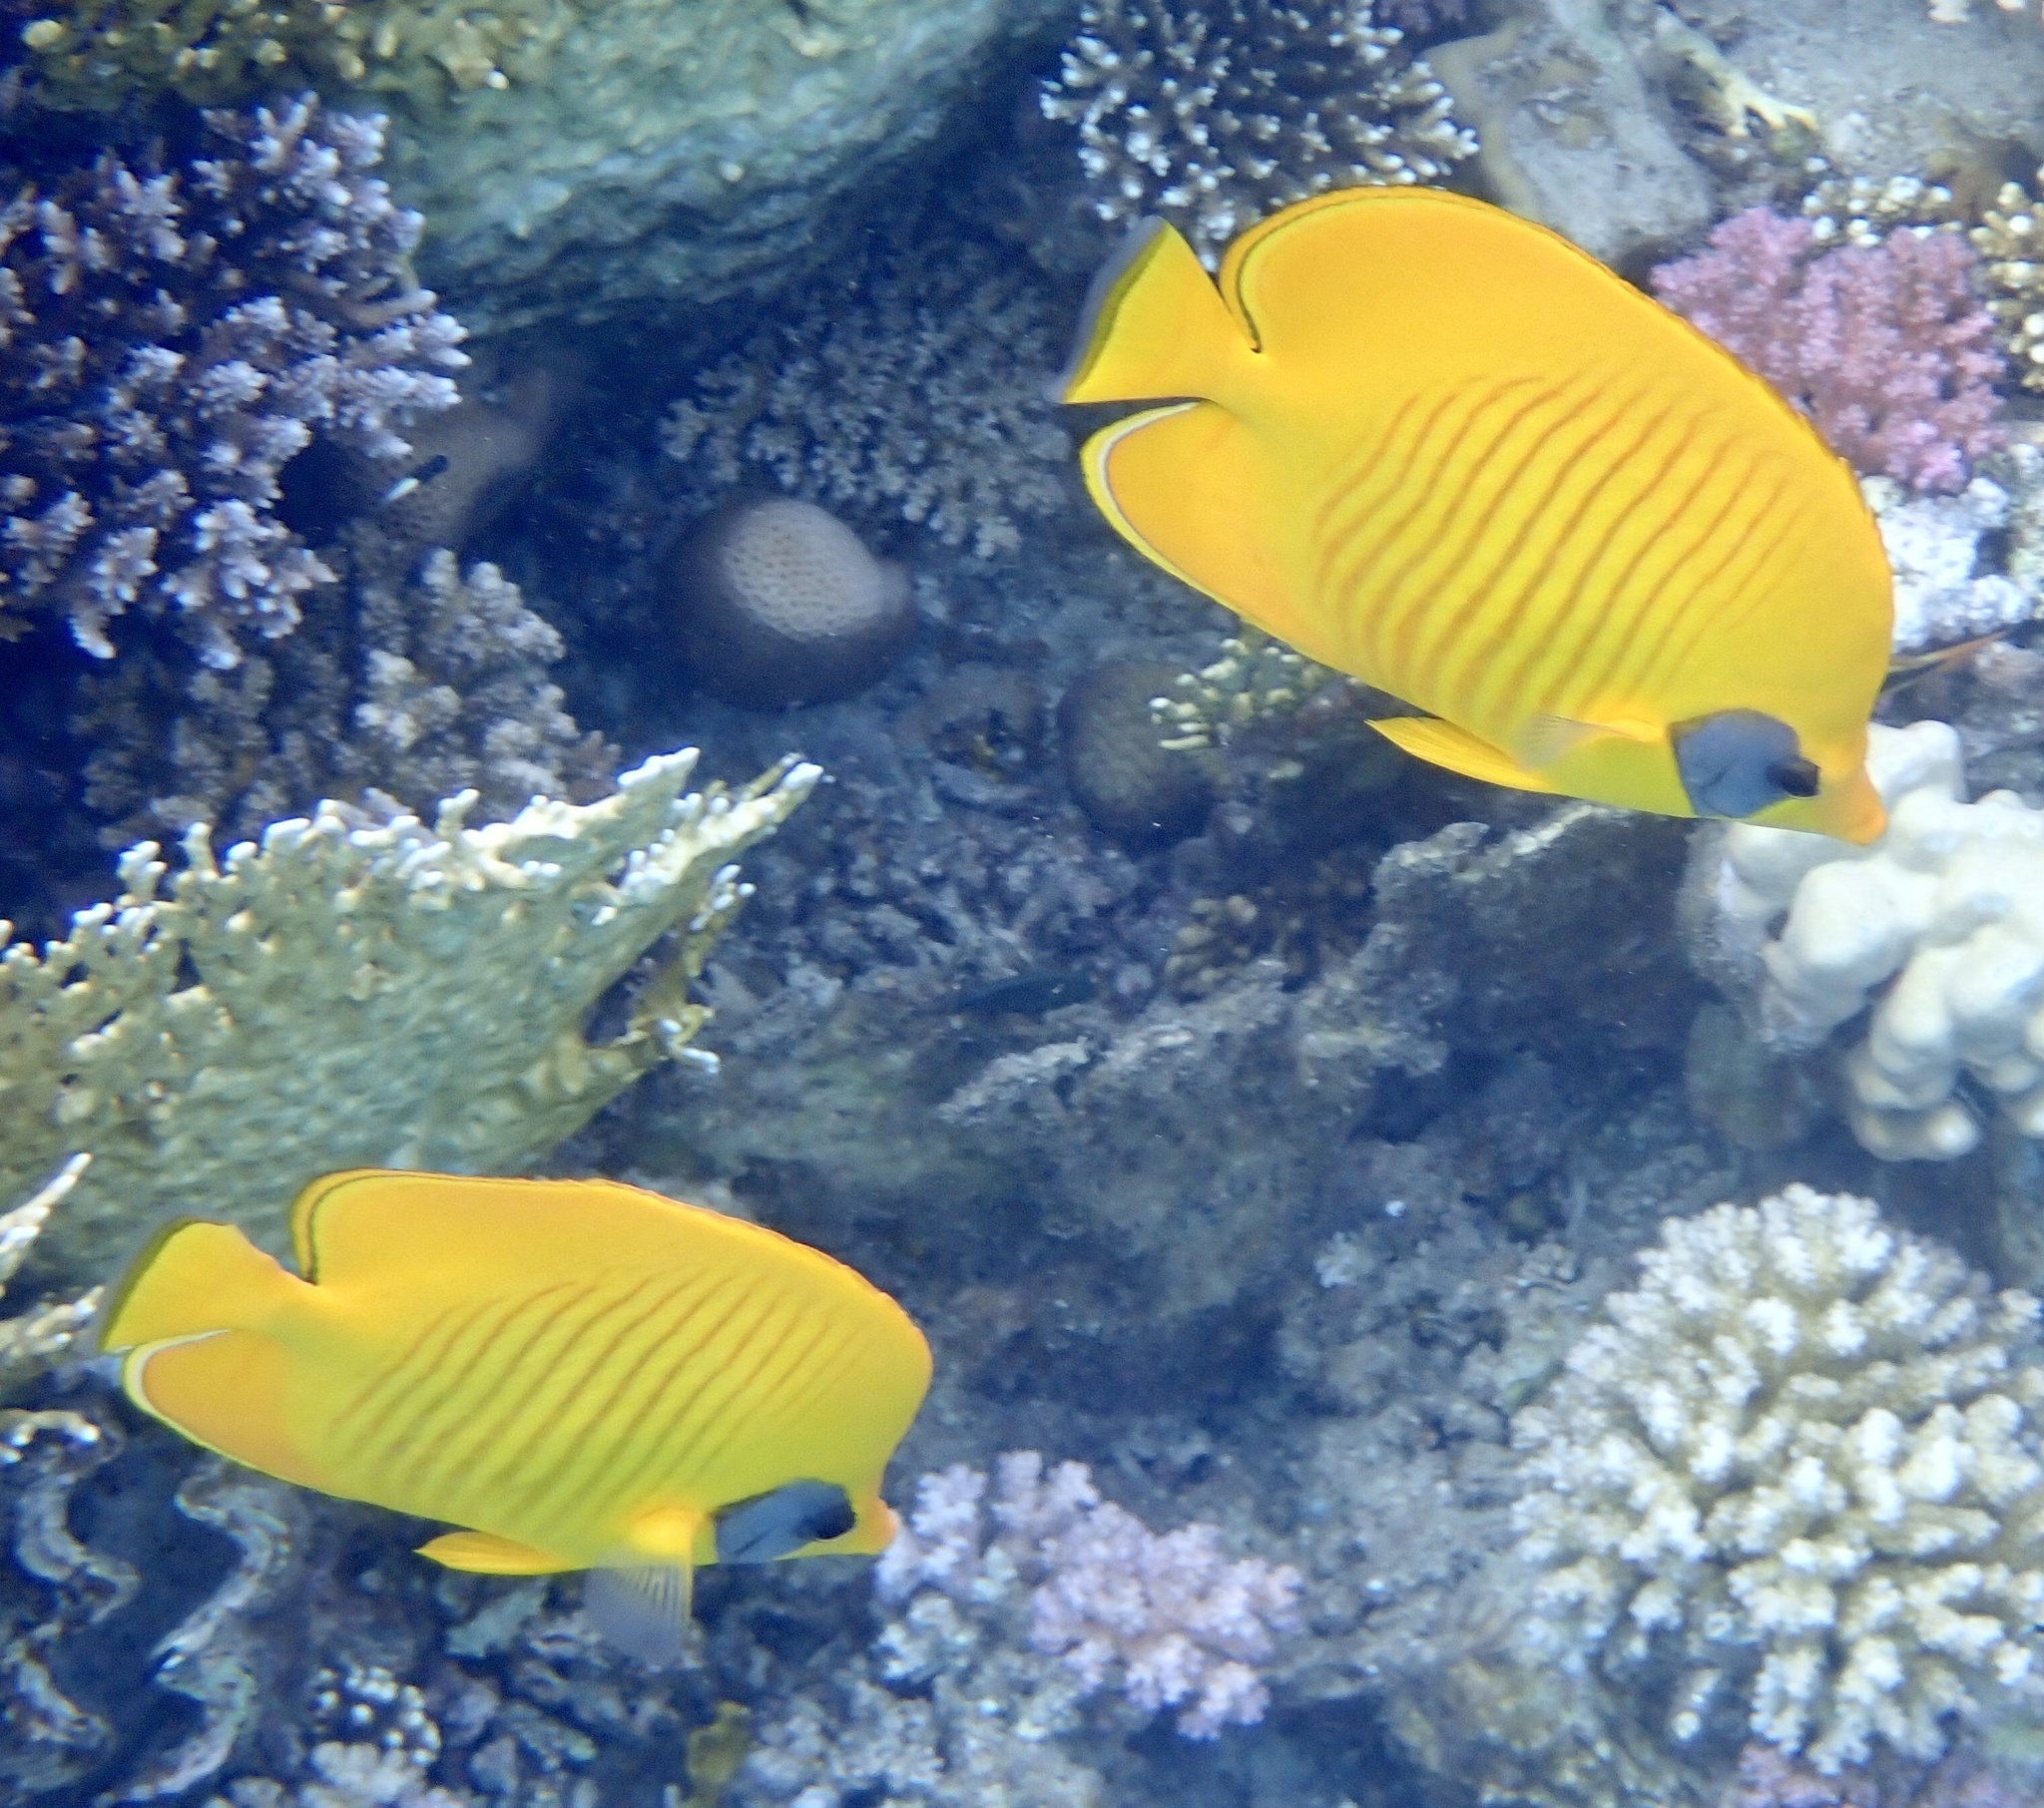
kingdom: Animalia
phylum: Chordata
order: Perciformes
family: Chaetodontidae
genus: Chaetodon
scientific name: Chaetodon semilarvatus
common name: Golden butterflyfish
